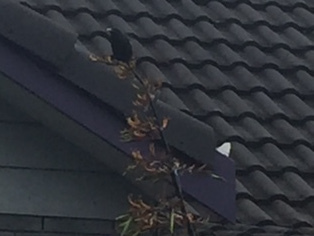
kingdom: Animalia
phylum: Chordata
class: Aves
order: Passeriformes
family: Sturnidae
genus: Sturnus
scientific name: Sturnus vulgaris
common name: Common starling
